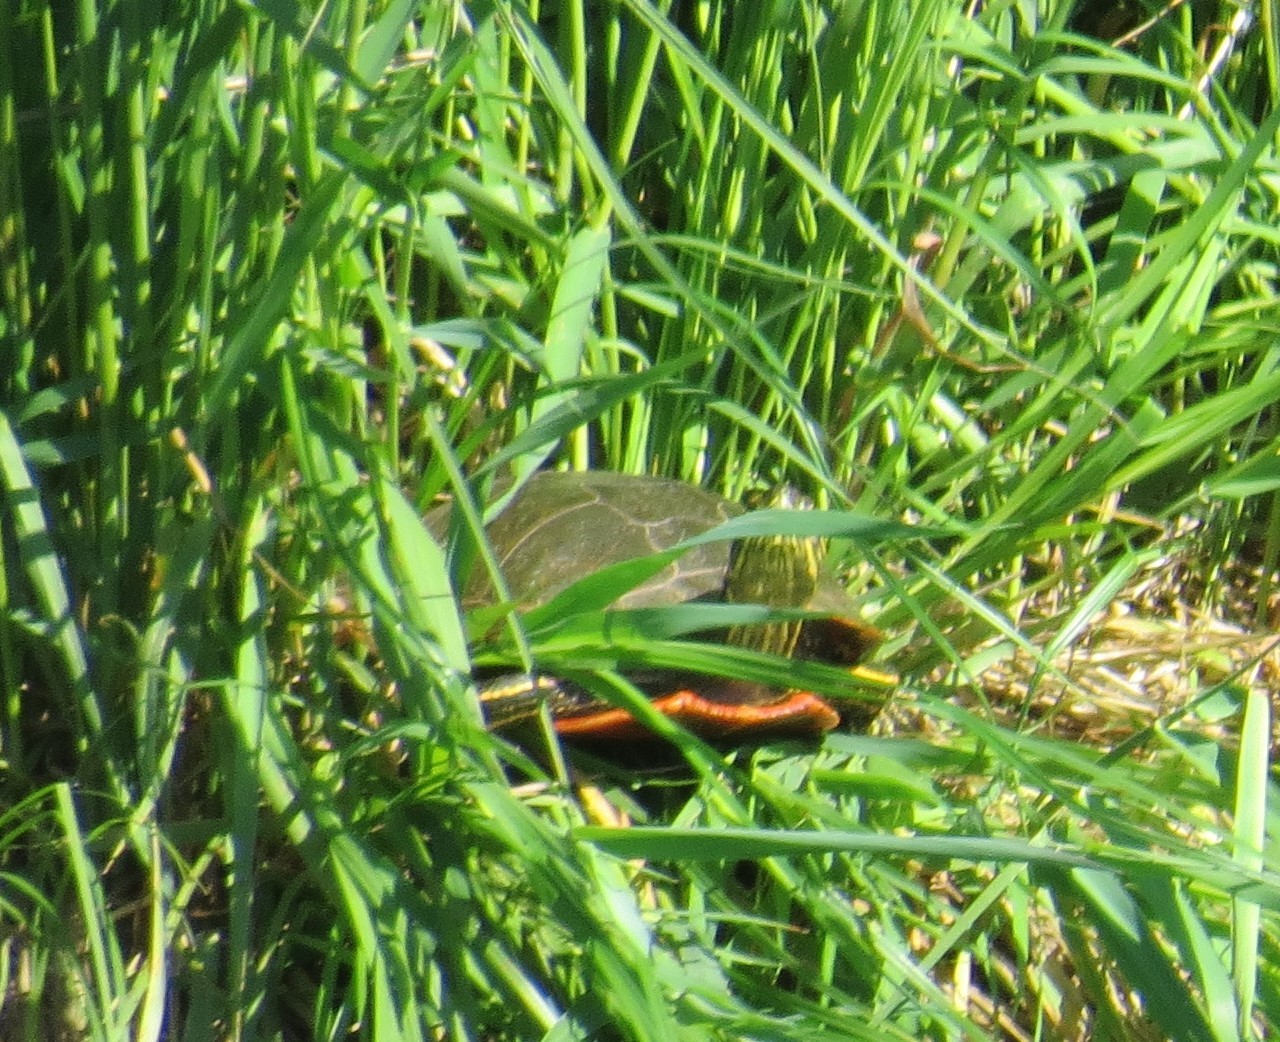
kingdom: Animalia
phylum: Chordata
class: Testudines
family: Emydidae
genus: Chrysemys
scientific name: Chrysemys picta
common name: Painted turtle
